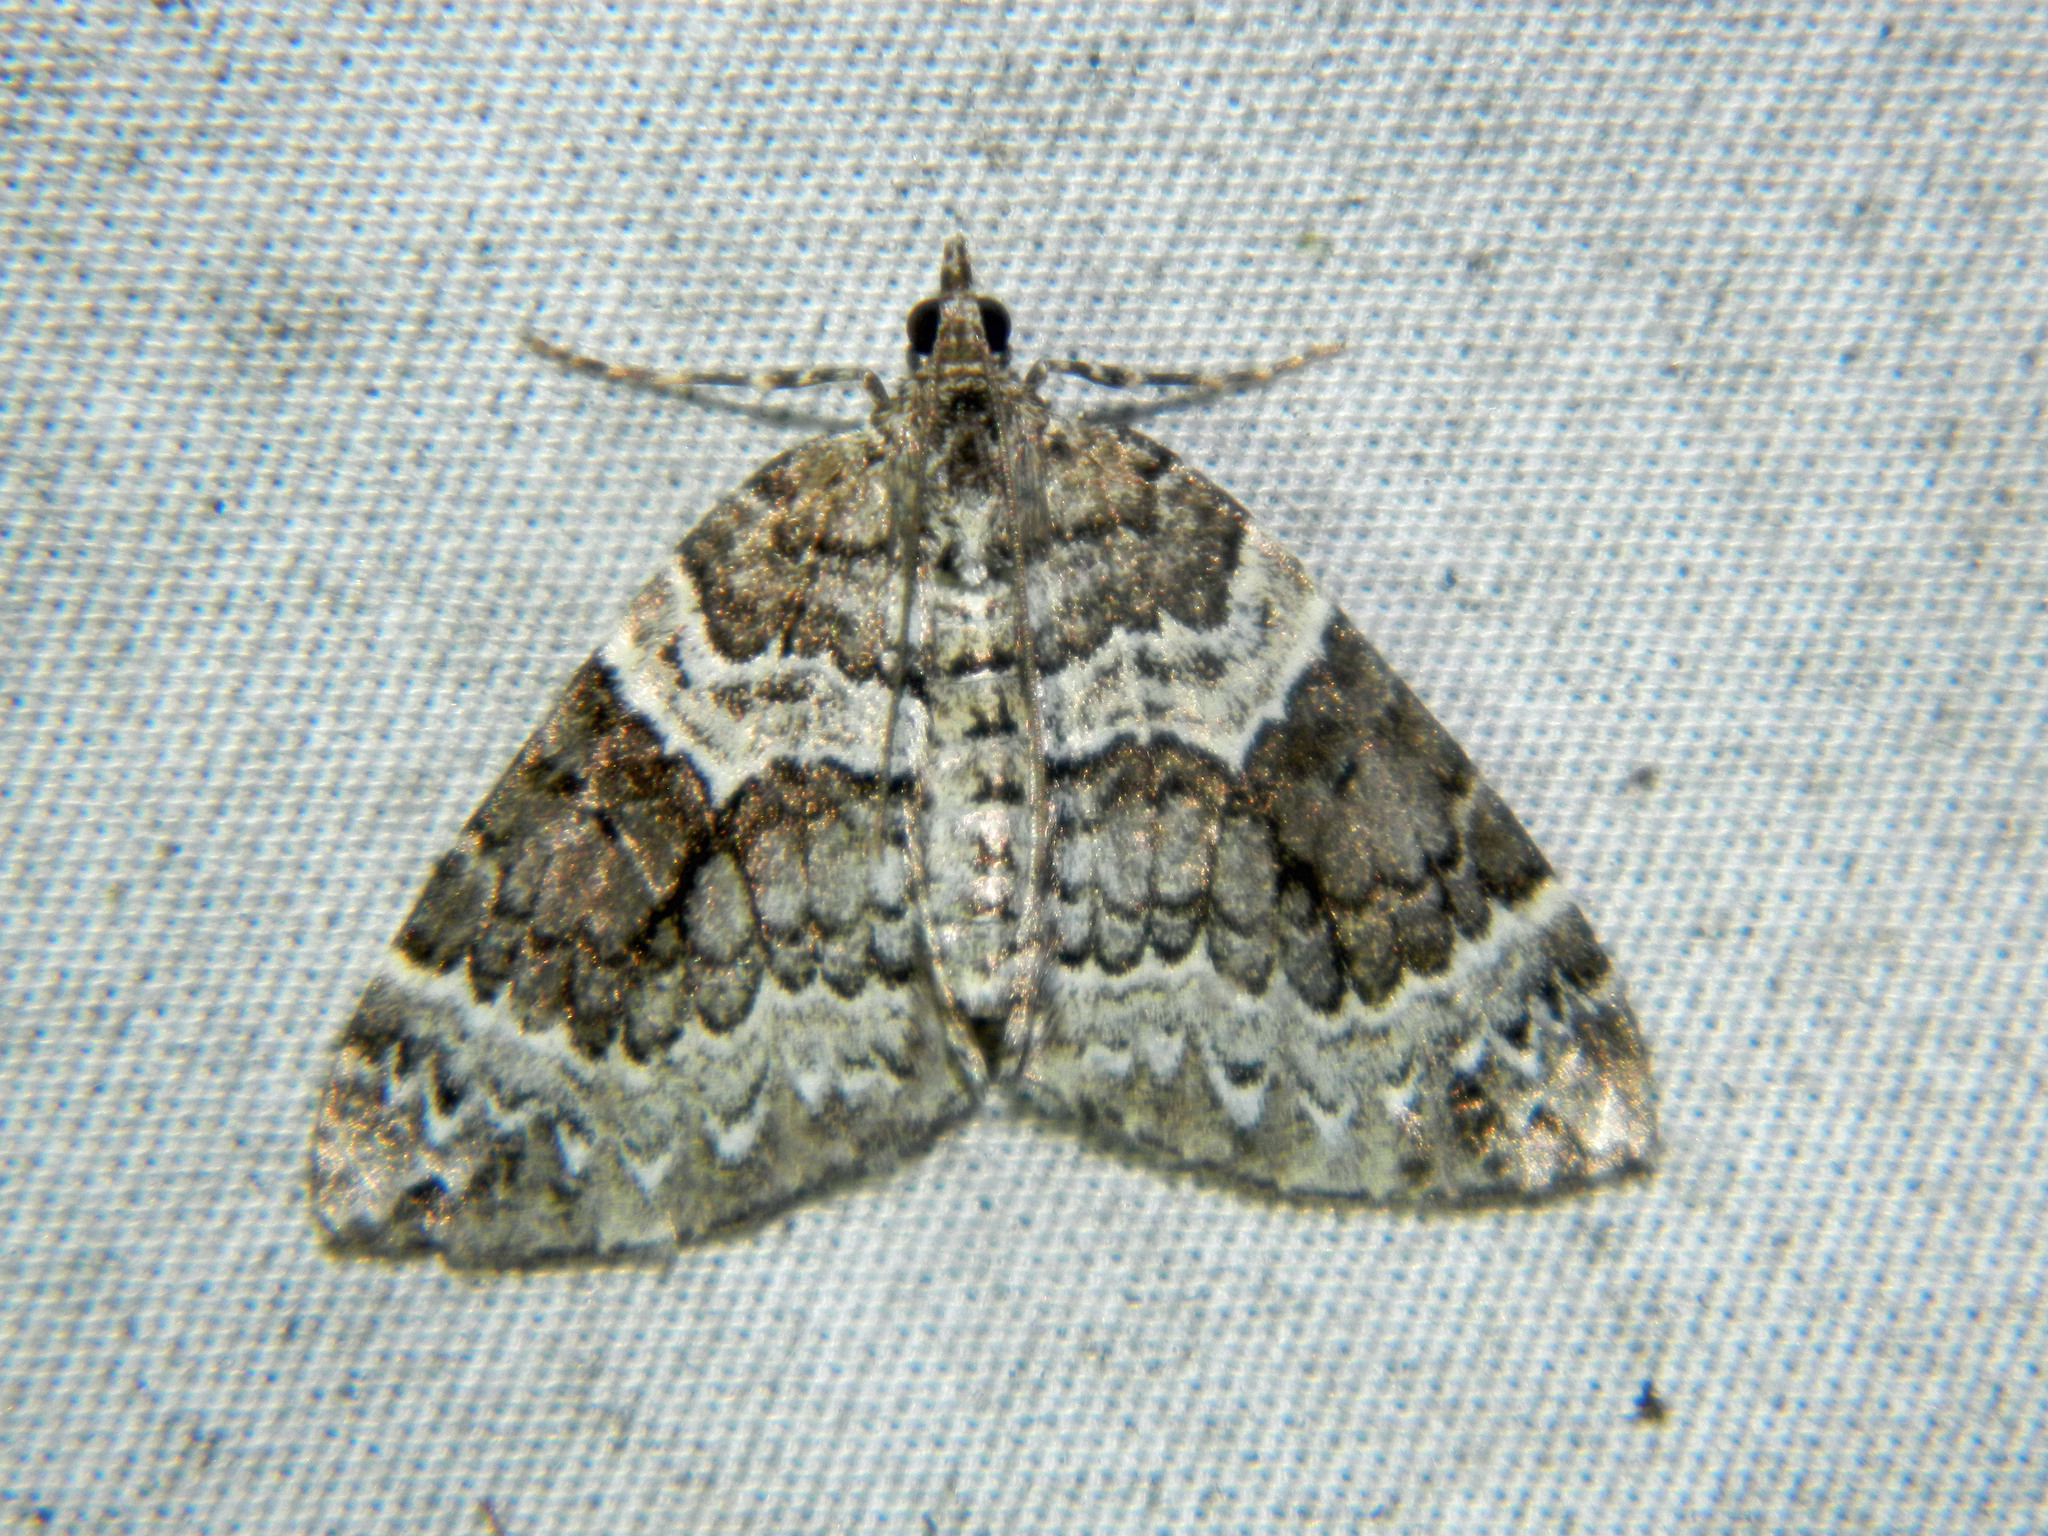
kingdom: Animalia
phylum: Arthropoda
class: Insecta
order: Lepidoptera
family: Geometridae
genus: Eulithis
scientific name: Eulithis explanata
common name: White eulithis
